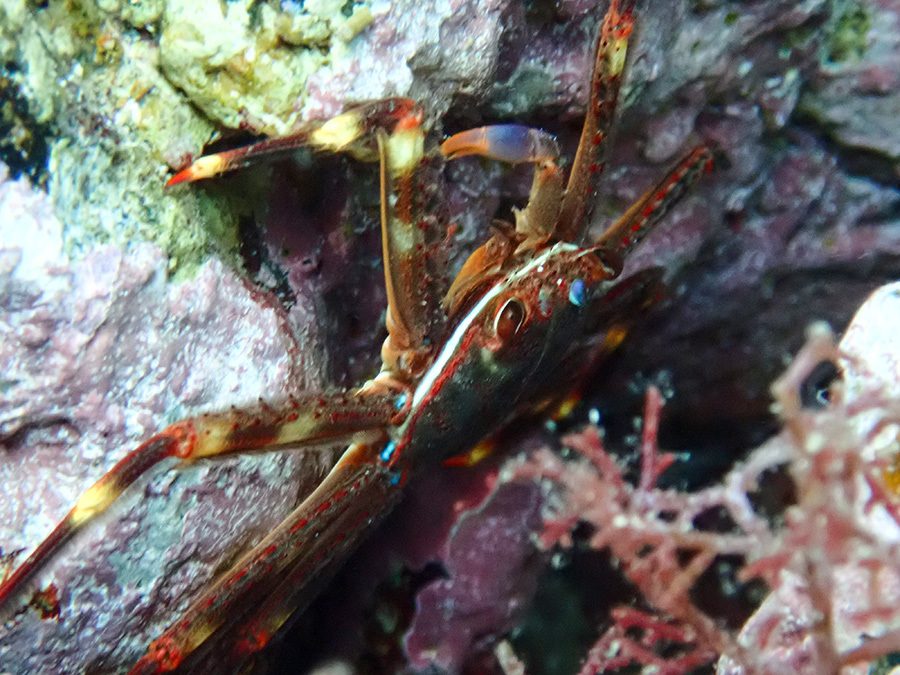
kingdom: Animalia
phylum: Arthropoda
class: Malacostraca
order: Decapoda
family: Percnidae
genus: Percnon
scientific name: Percnon gibbesi
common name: Nimble spray crab
